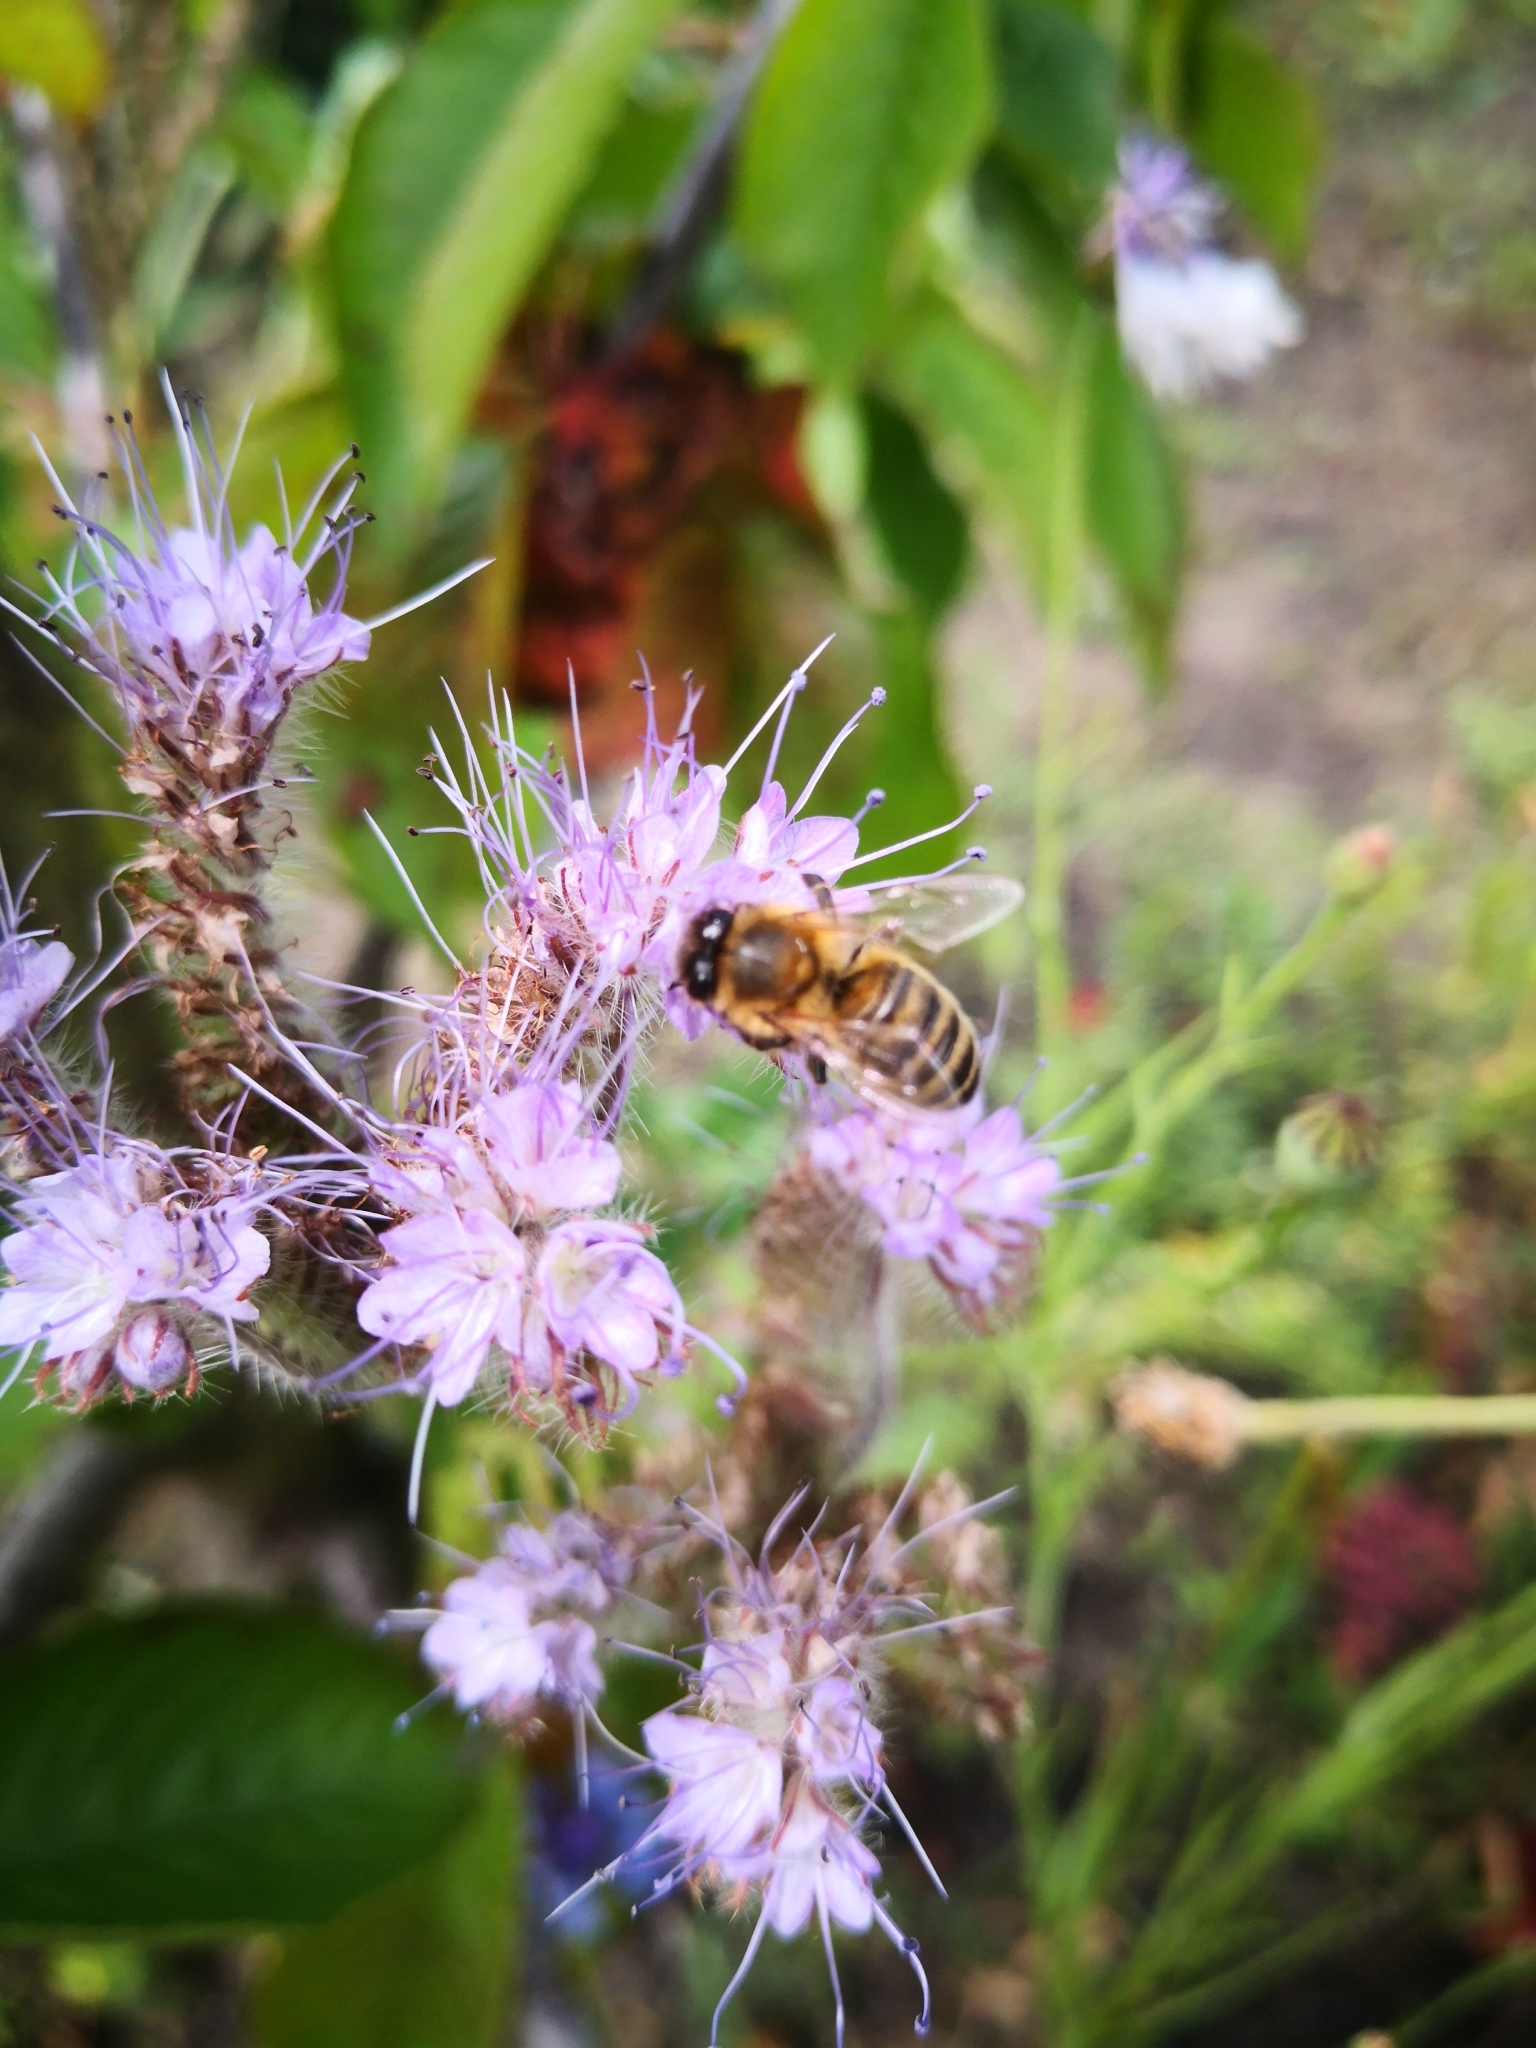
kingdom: Animalia
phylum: Arthropoda
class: Insecta
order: Hymenoptera
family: Apidae
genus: Apis
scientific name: Apis mellifera
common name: Honey bee
